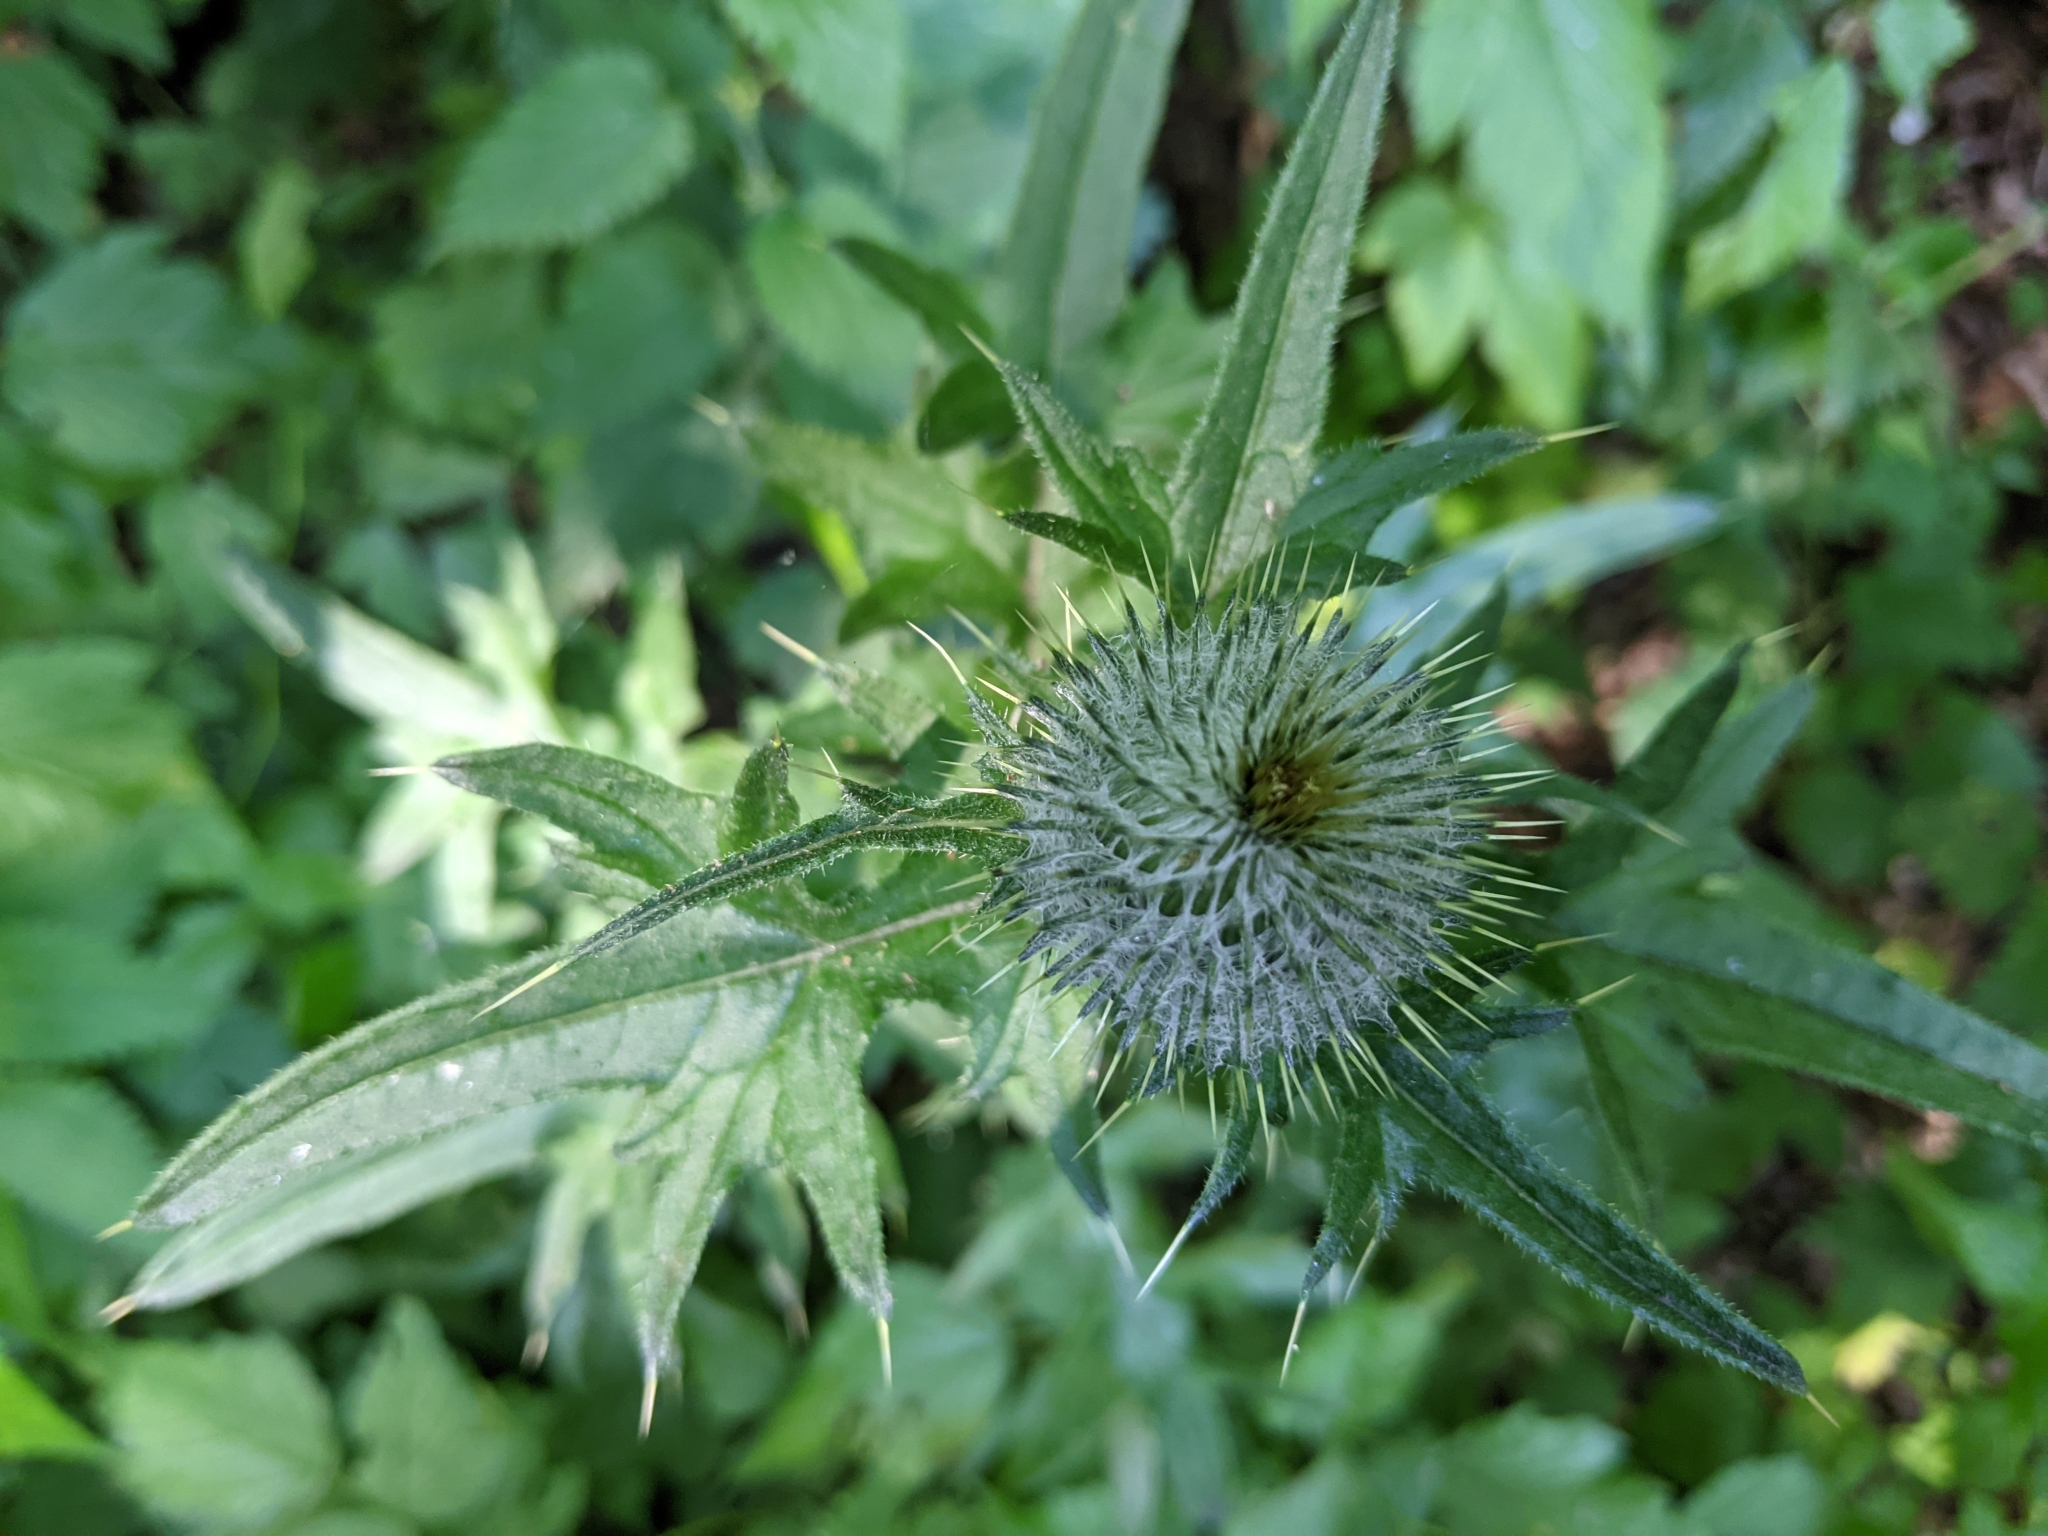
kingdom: Plantae
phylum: Tracheophyta
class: Magnoliopsida
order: Asterales
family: Asteraceae
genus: Cirsium
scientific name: Cirsium vulgare
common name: Bull thistle
